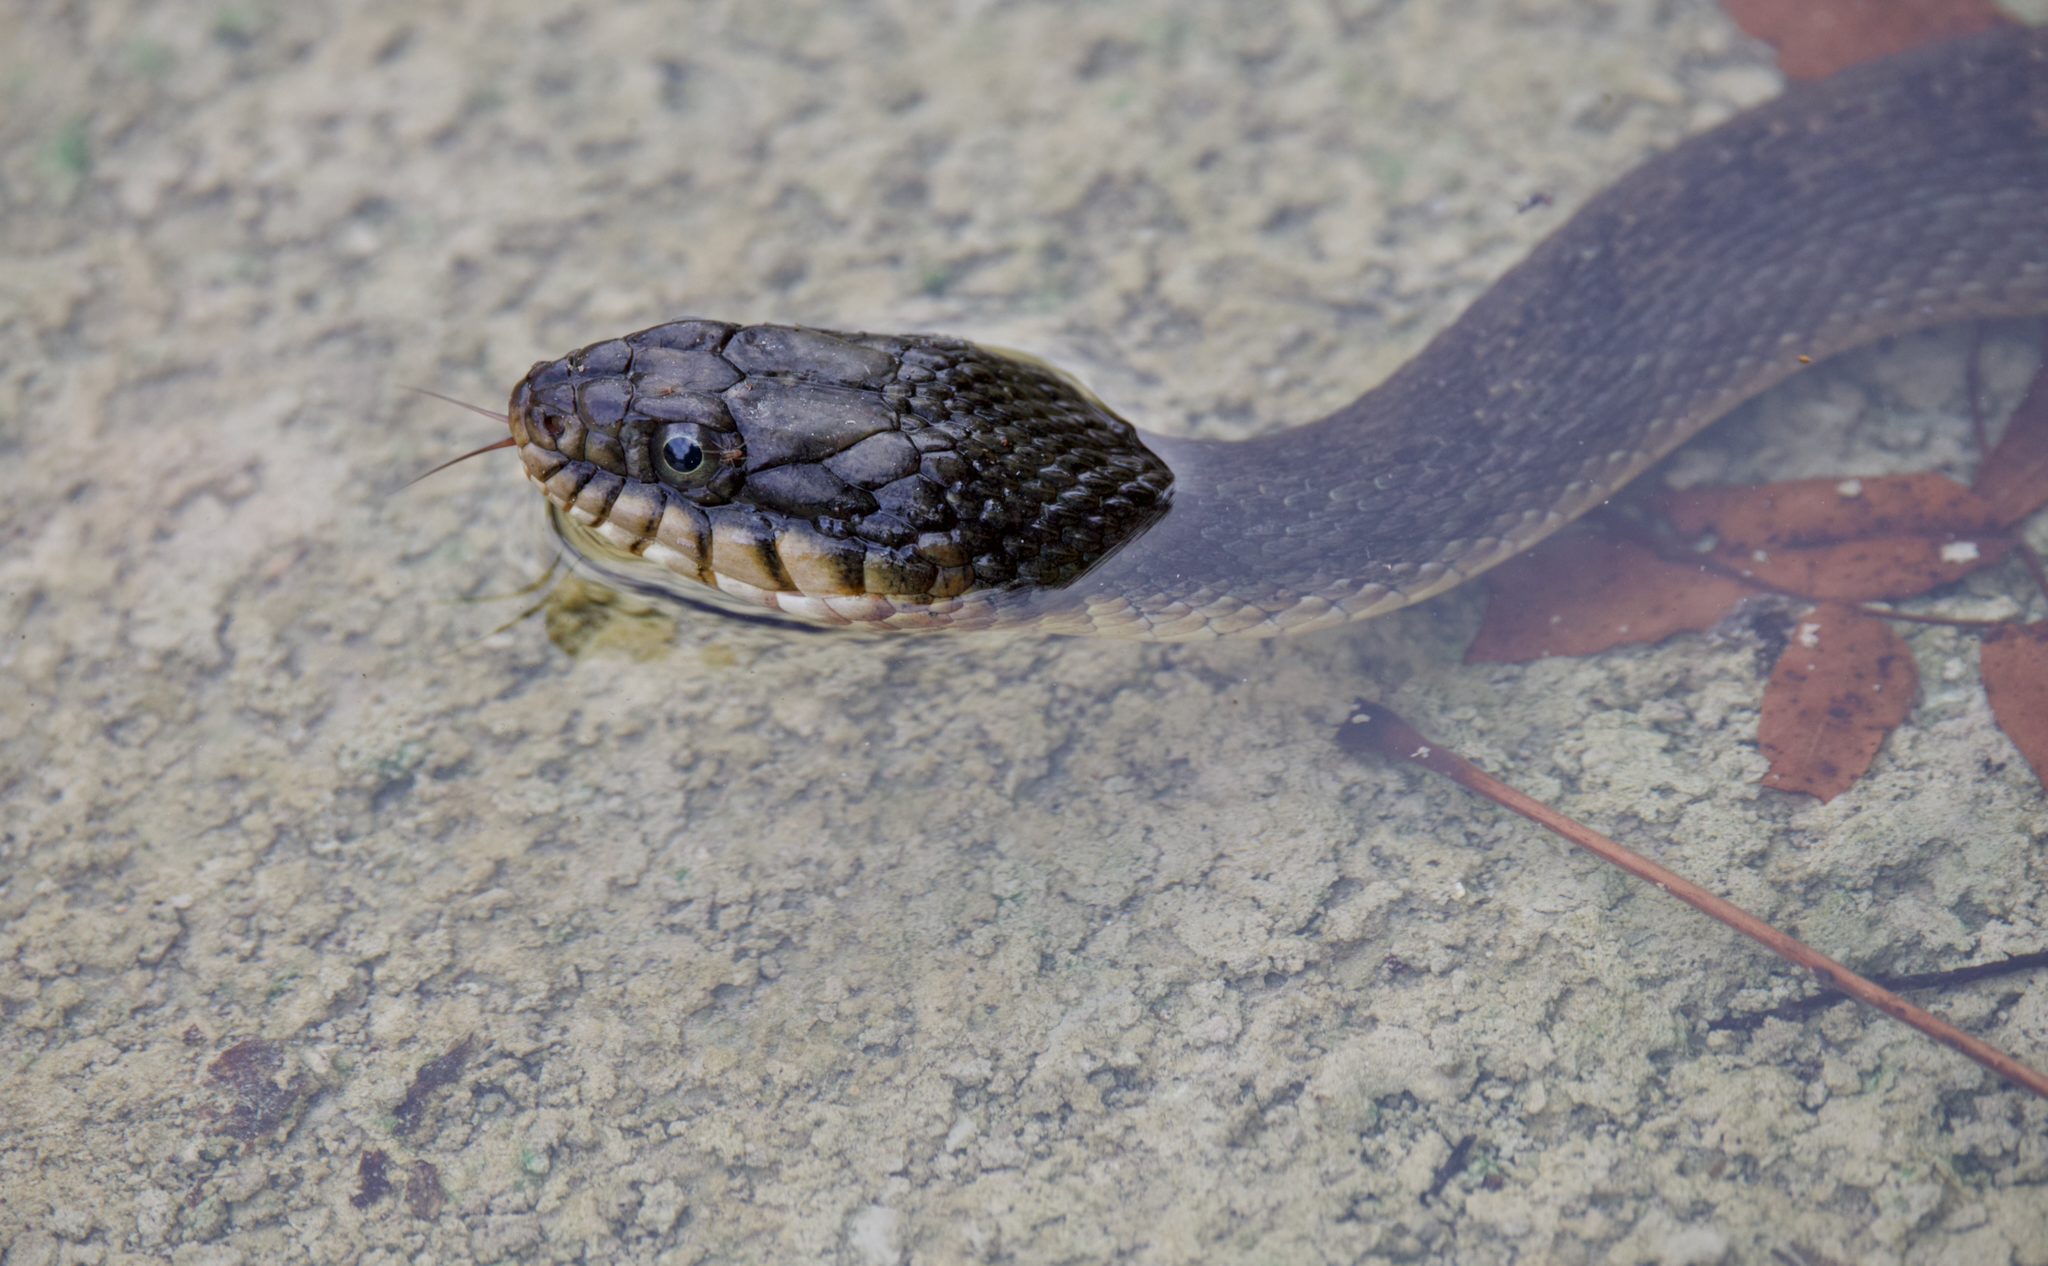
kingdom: Animalia
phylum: Chordata
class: Squamata
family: Colubridae
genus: Nerodia
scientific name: Nerodia erythrogaster
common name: Plainbelly water snake
